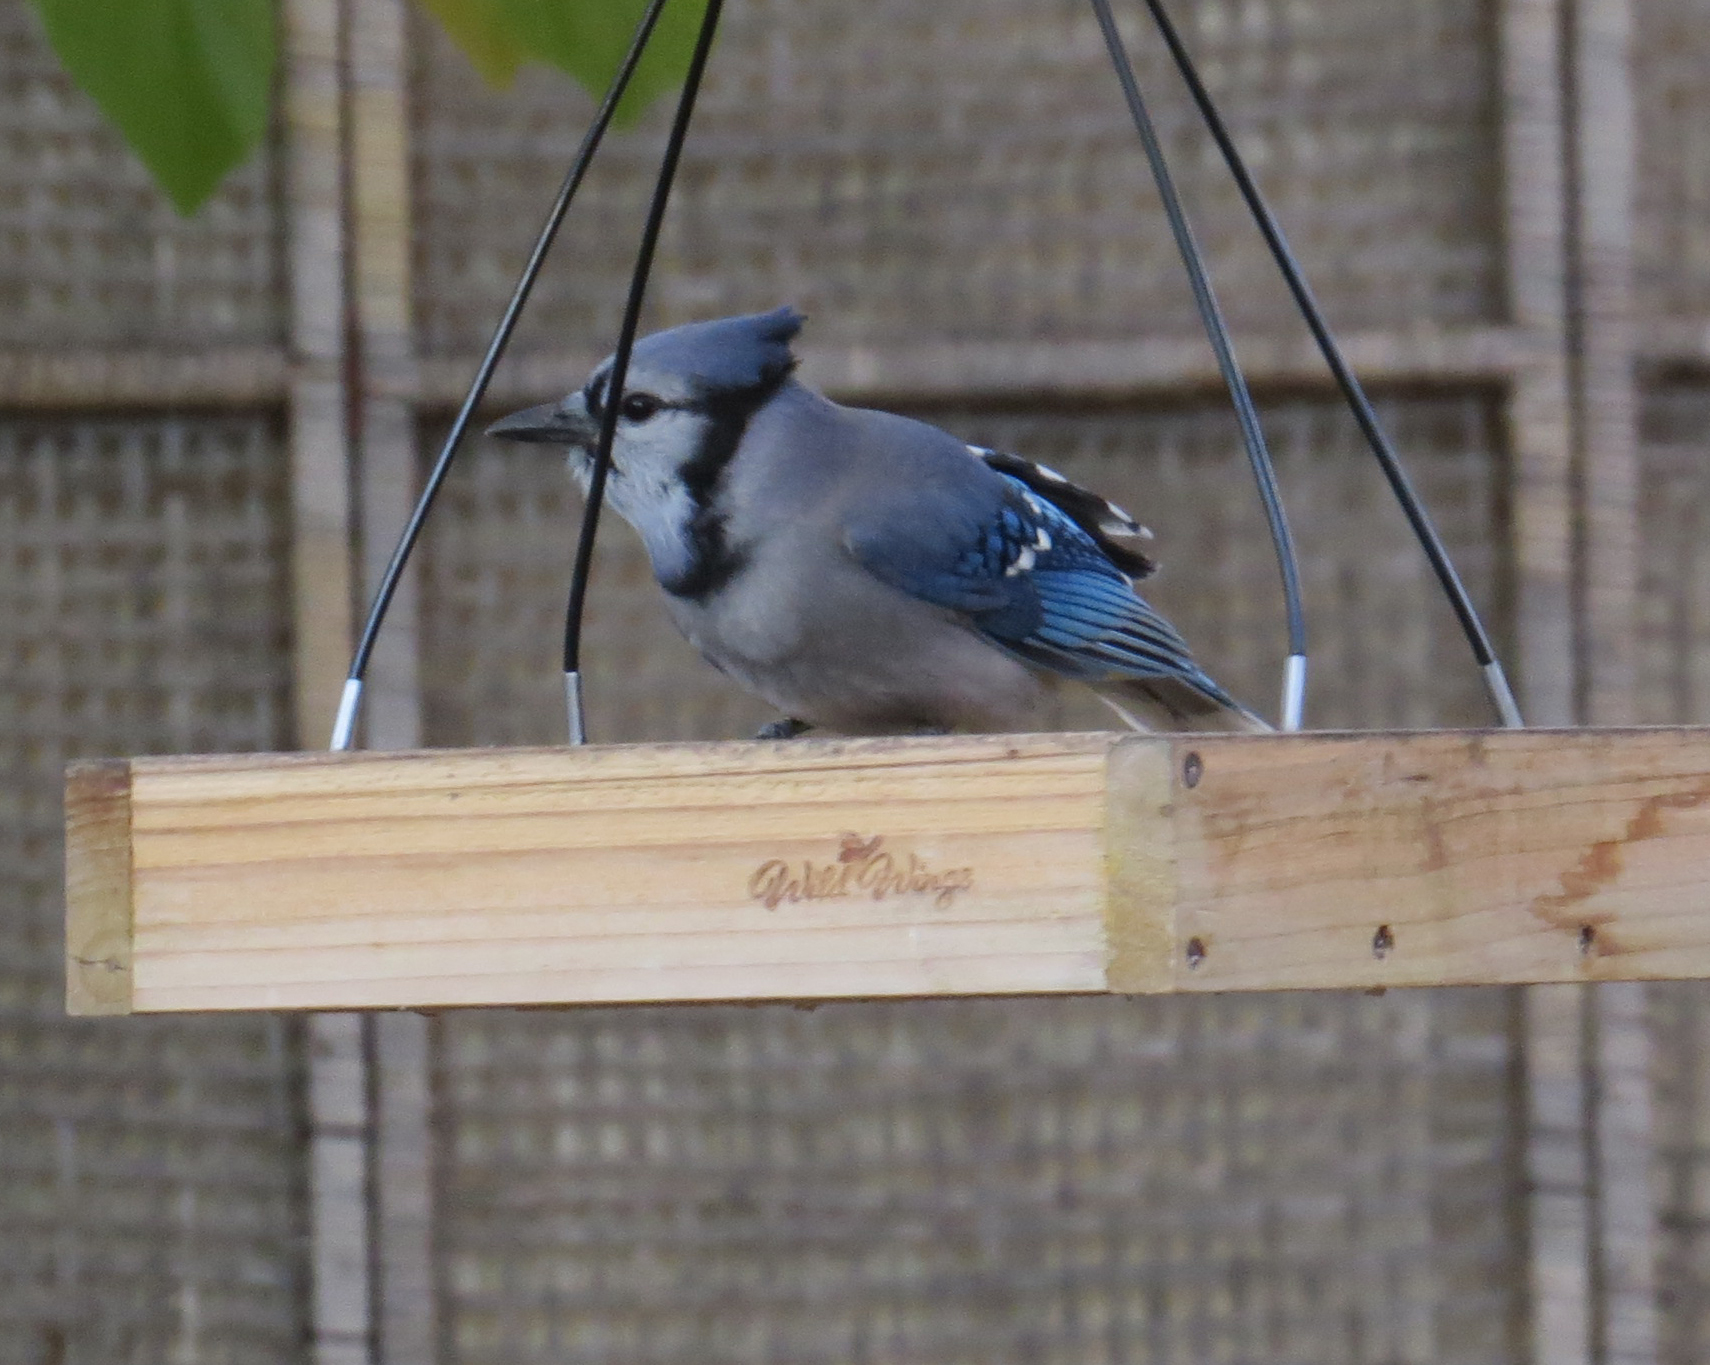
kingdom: Animalia
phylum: Chordata
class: Aves
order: Passeriformes
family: Corvidae
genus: Cyanocitta
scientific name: Cyanocitta cristata
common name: Blue jay
